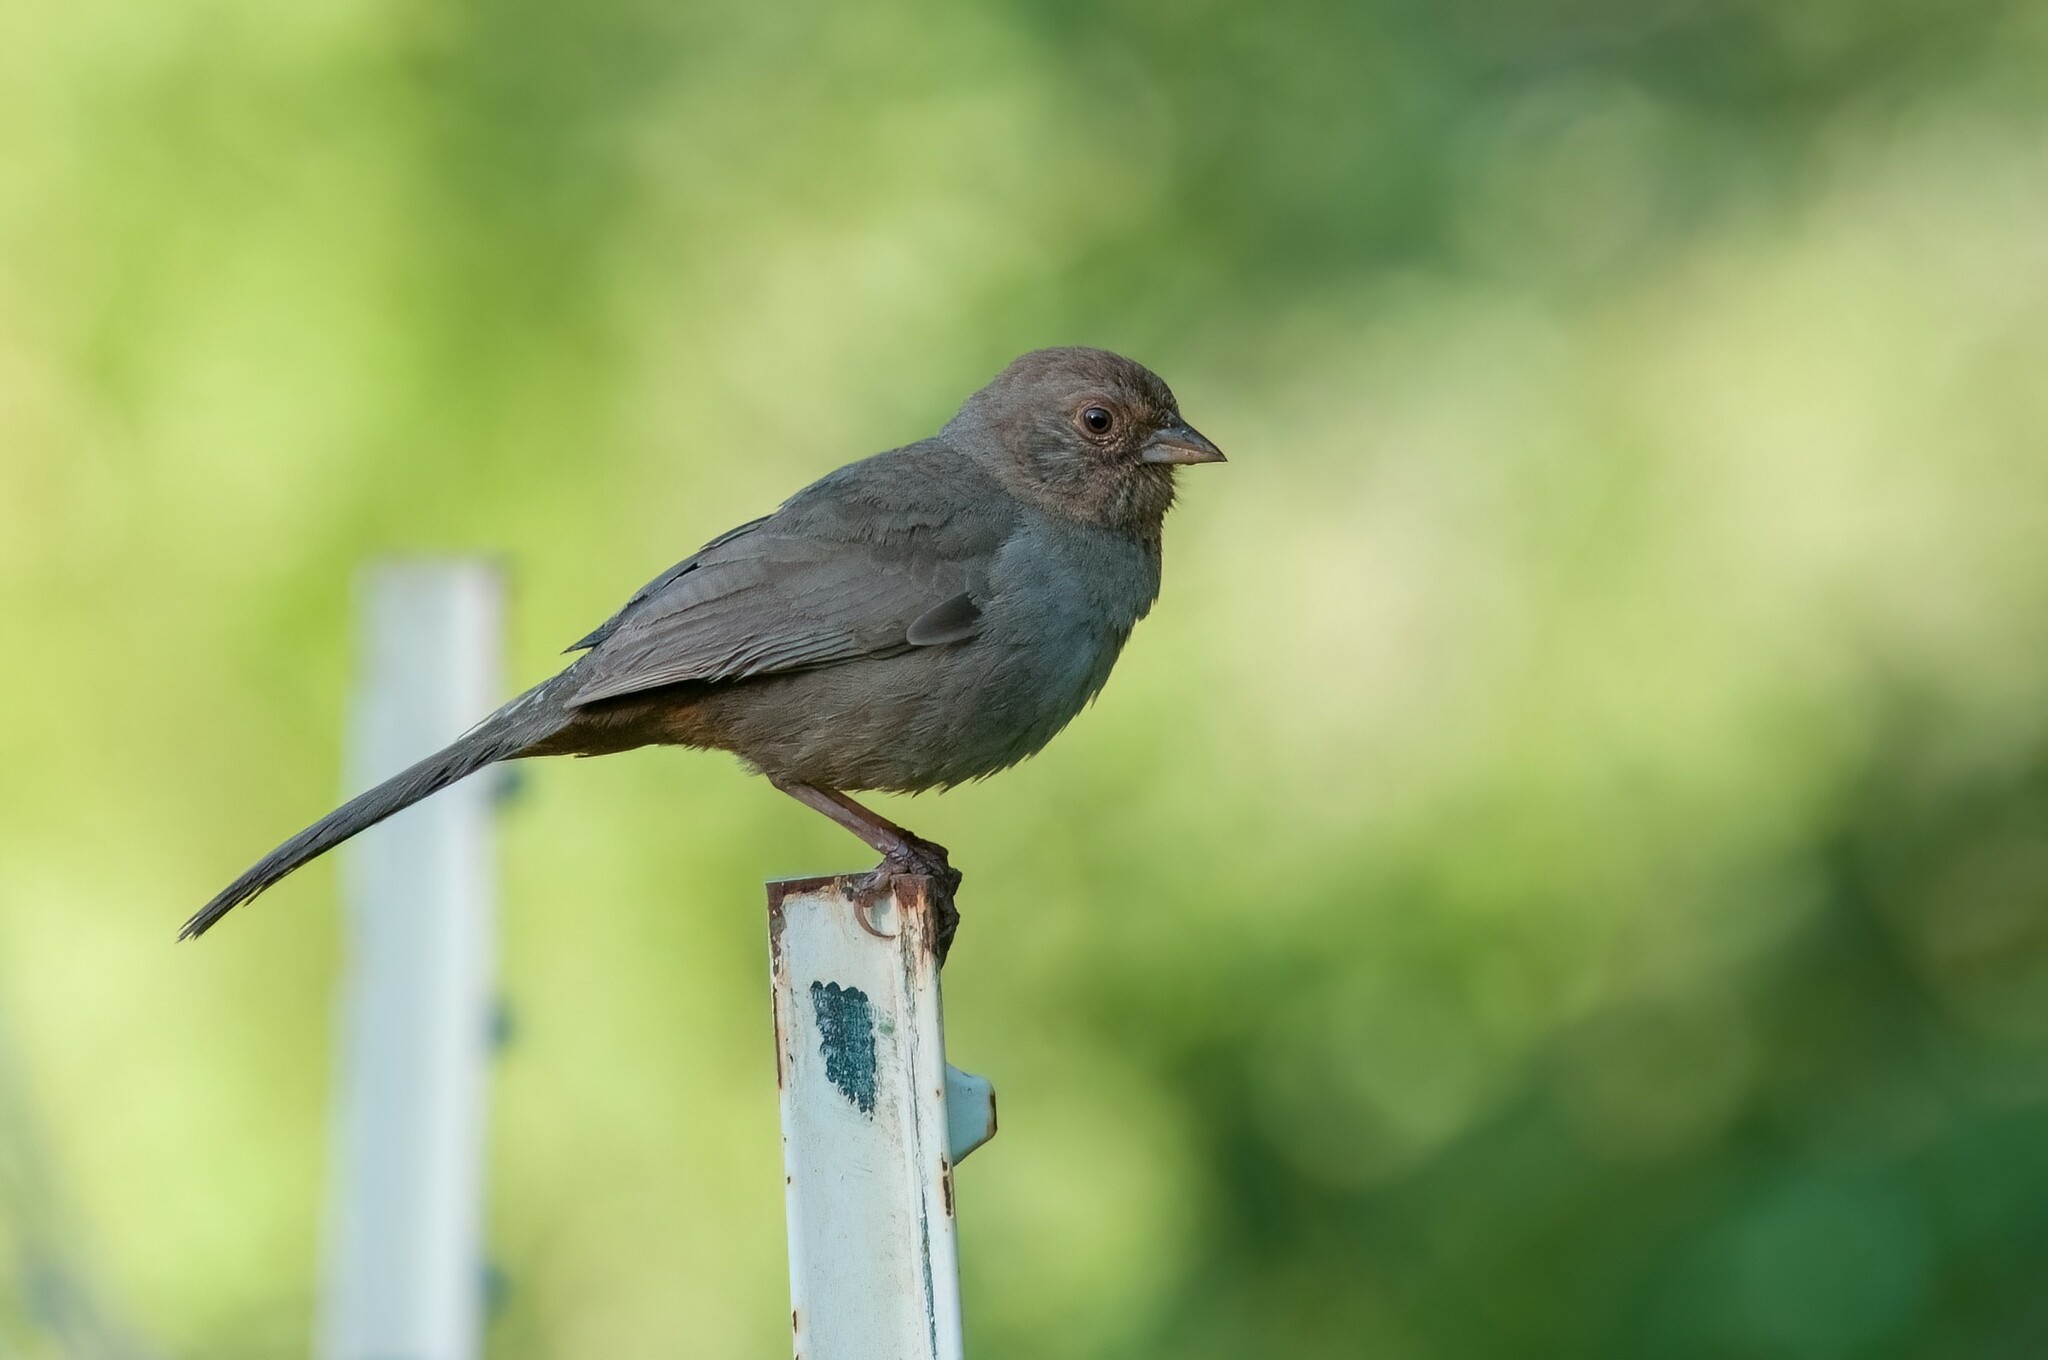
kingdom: Animalia
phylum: Chordata
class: Aves
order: Passeriformes
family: Passerellidae
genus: Melozone
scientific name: Melozone crissalis
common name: California towhee
